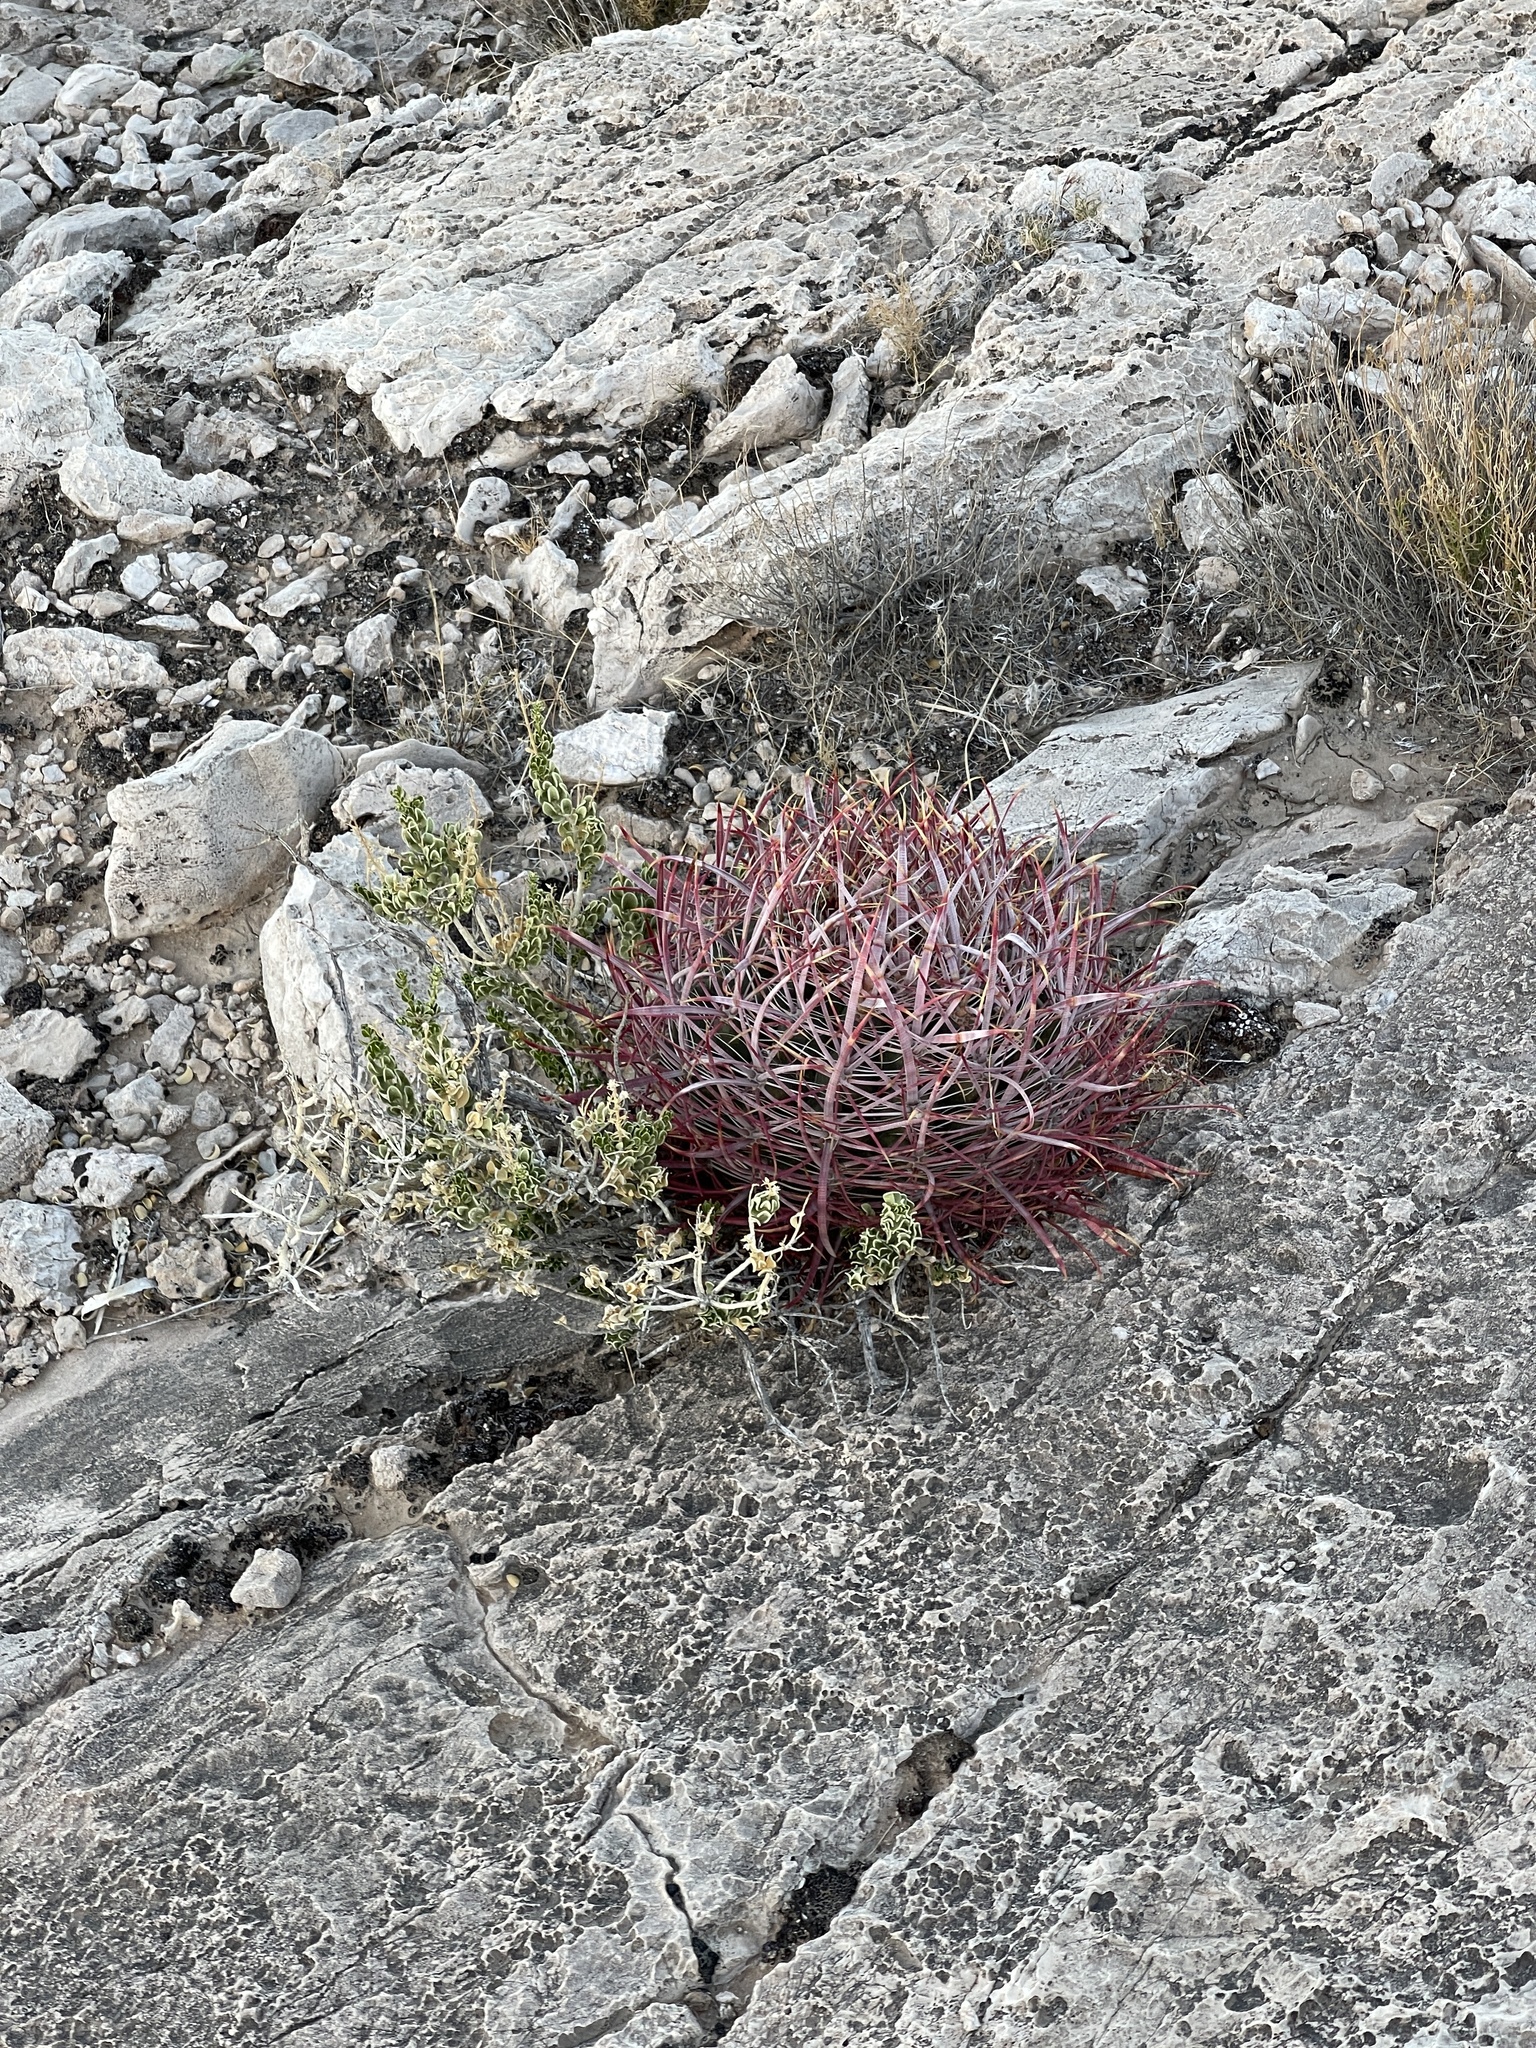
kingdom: Plantae
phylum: Tracheophyta
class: Magnoliopsida
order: Caryophyllales
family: Cactaceae
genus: Ferocactus
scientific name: Ferocactus cylindraceus
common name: California barrel cactus
